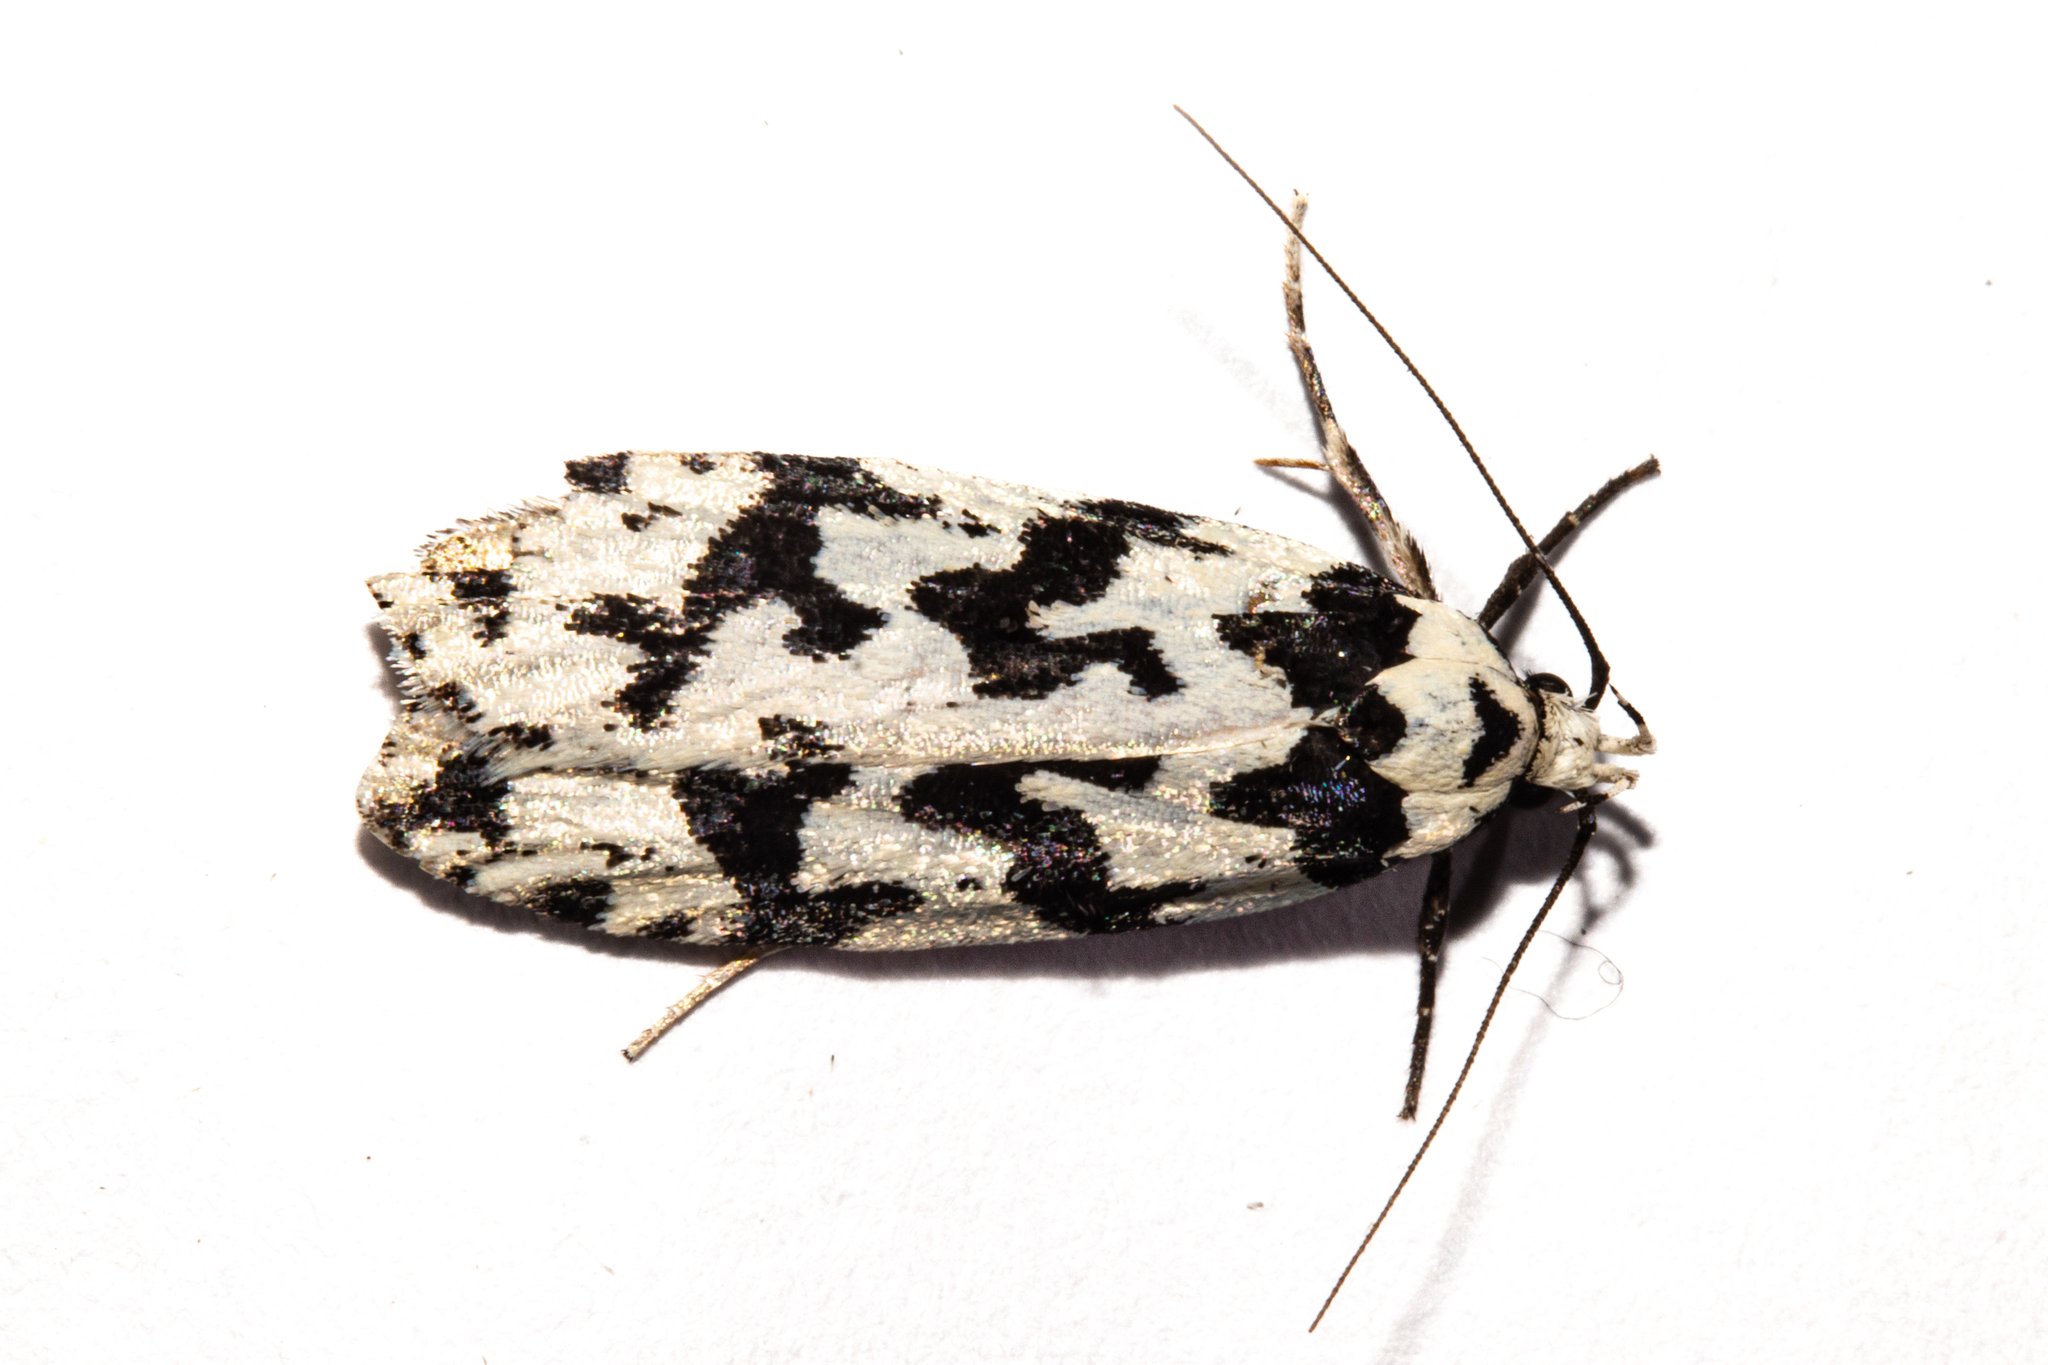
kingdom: Animalia
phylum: Arthropoda
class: Insecta
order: Lepidoptera
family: Oecophoridae
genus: Izatha
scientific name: Izatha acmonias
